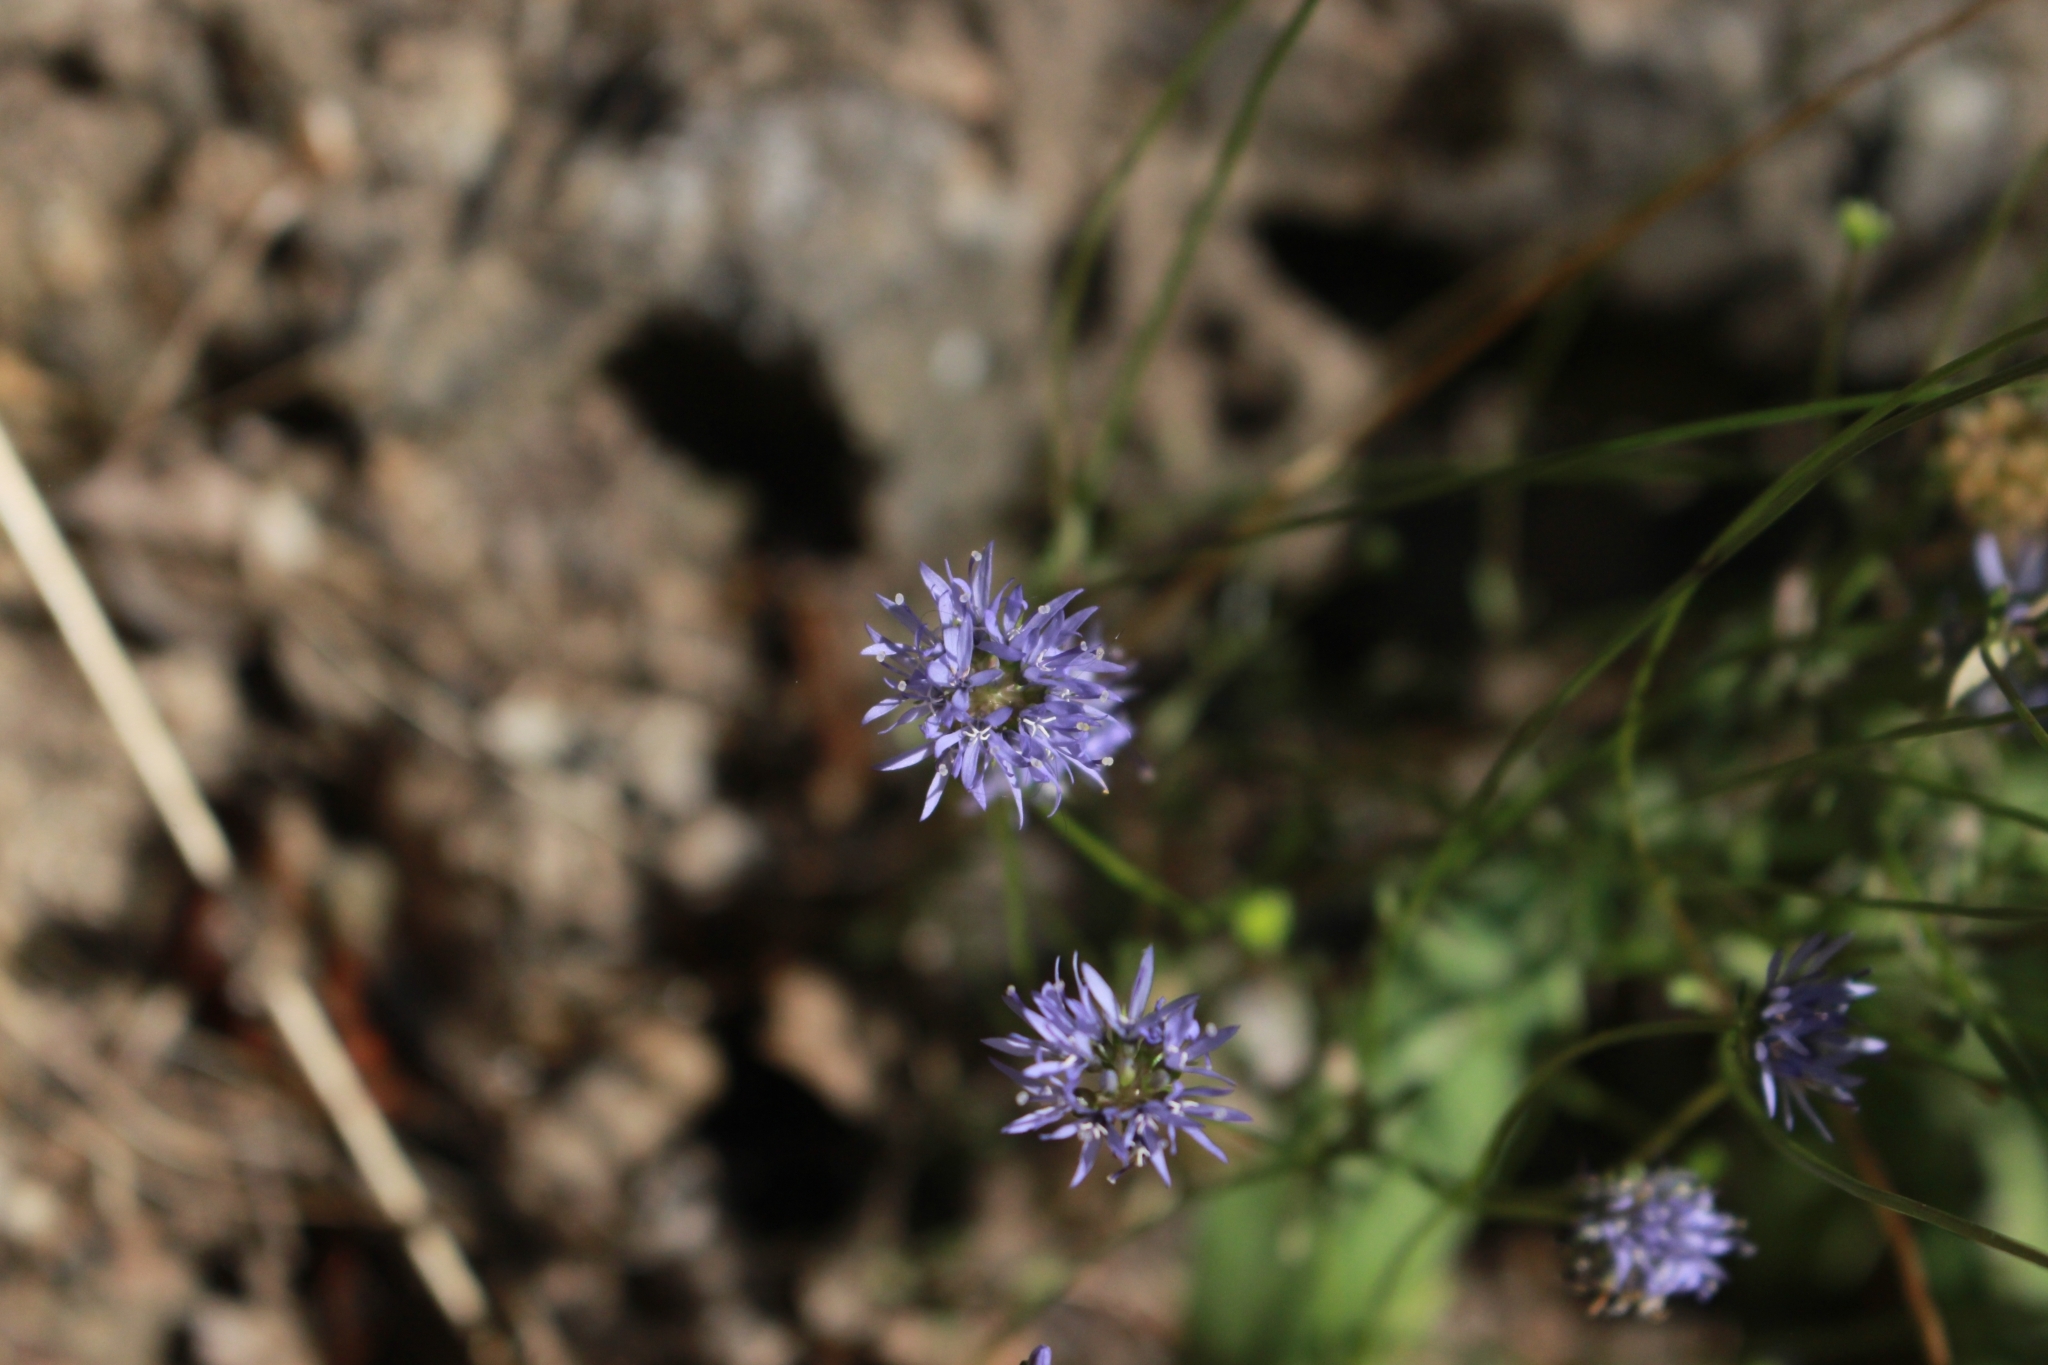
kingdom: Plantae
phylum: Tracheophyta
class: Magnoliopsida
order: Asterales
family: Campanulaceae
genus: Jasione
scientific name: Jasione montana
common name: Sheep's-bit
